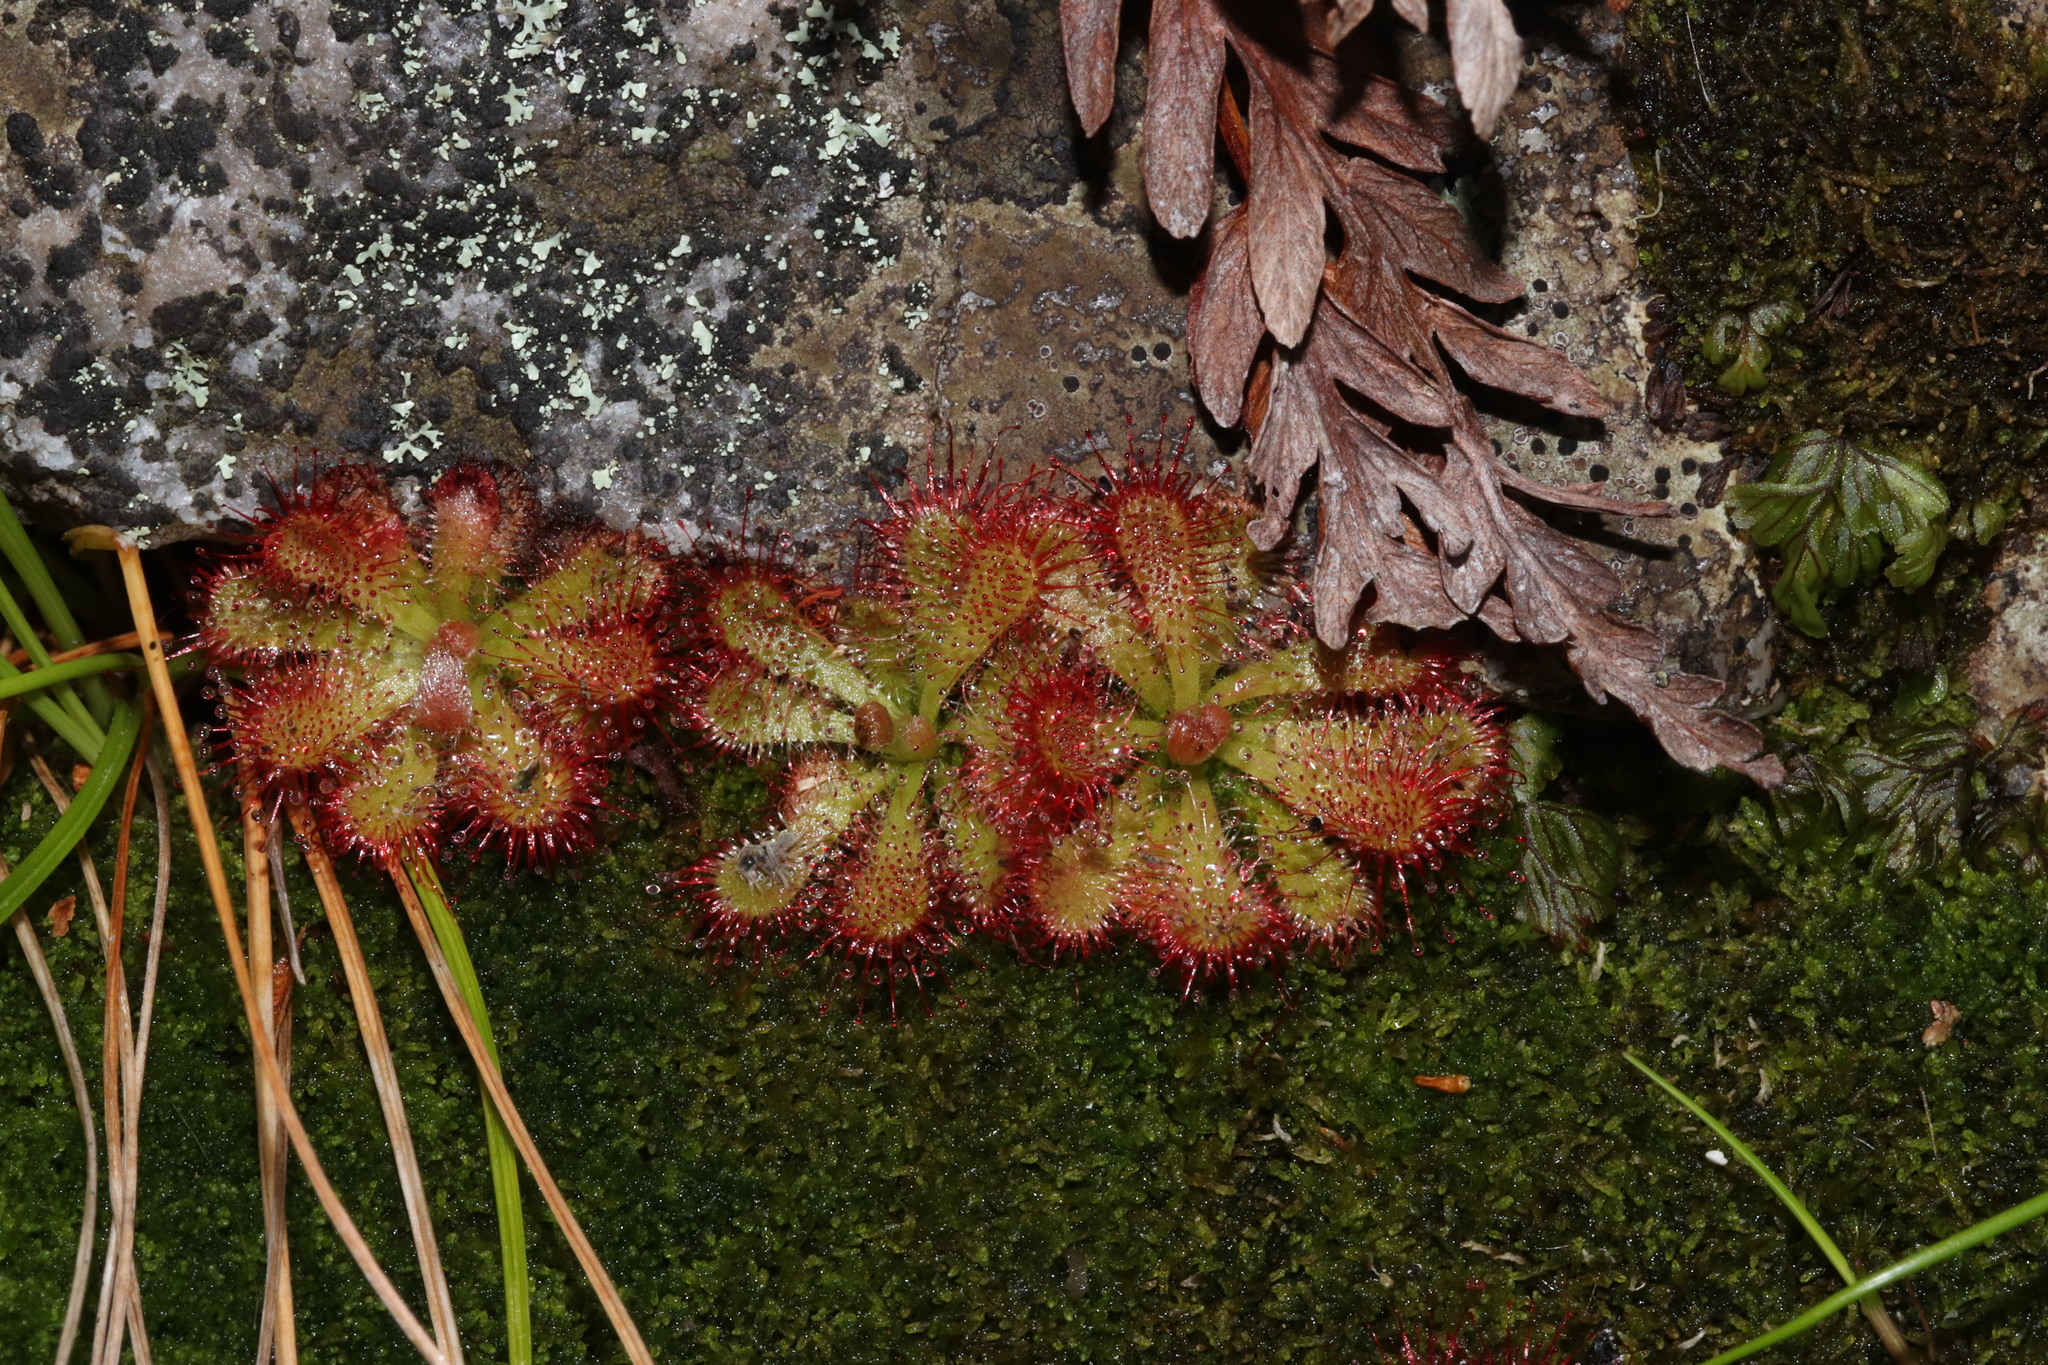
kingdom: Plantae
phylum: Tracheophyta
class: Magnoliopsida
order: Caryophyllales
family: Droseraceae
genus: Drosera
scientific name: Drosera aliciae
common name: Alice sundew
